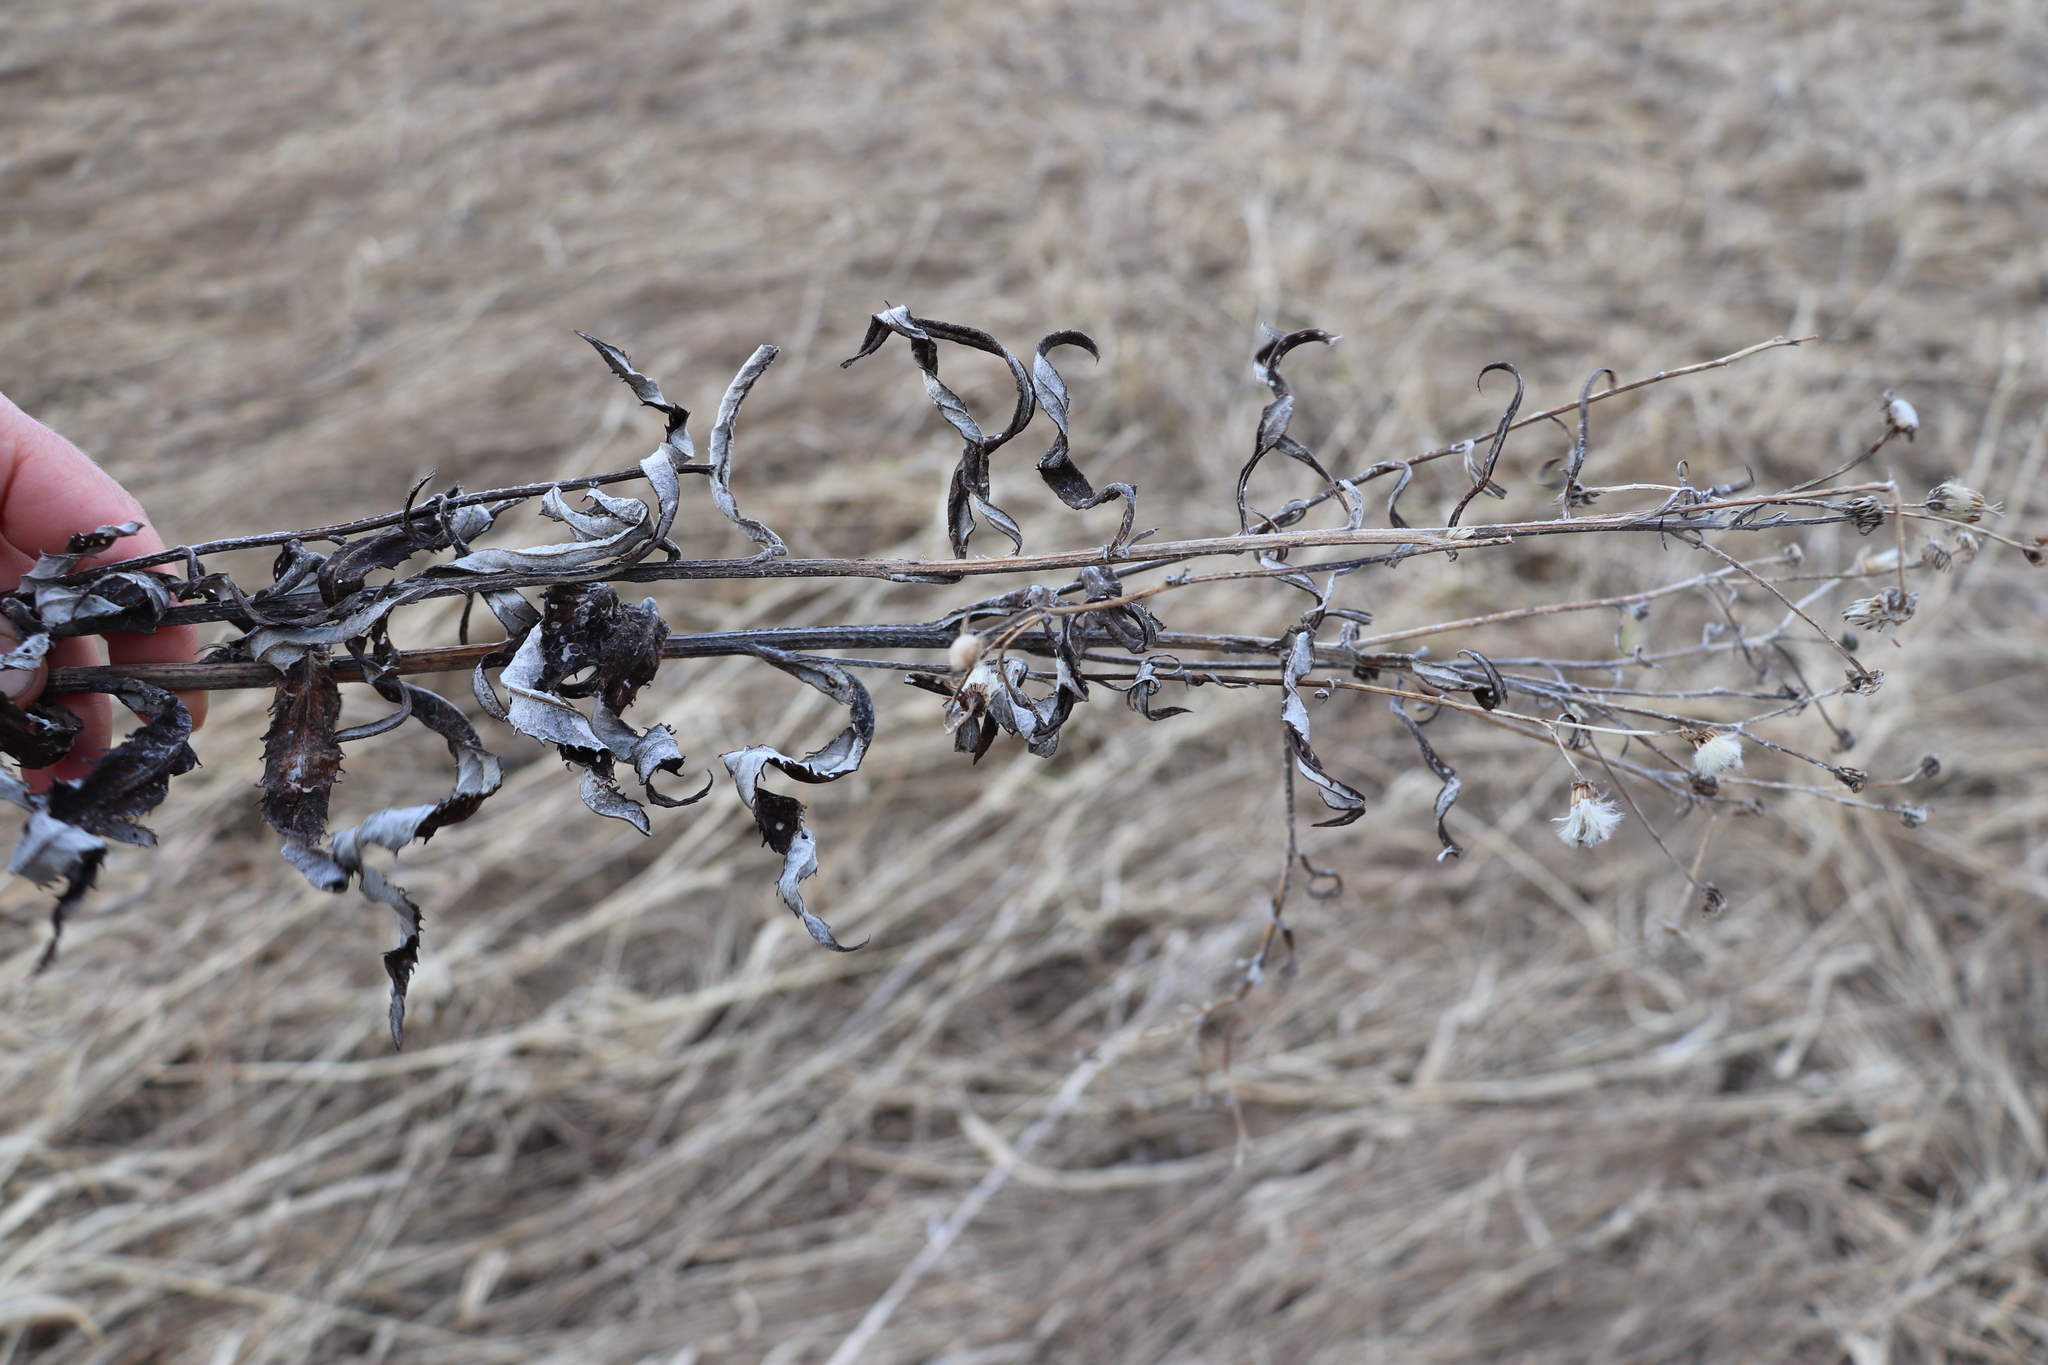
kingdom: Plantae
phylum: Tracheophyta
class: Magnoliopsida
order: Asterales
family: Asteraceae
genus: Cirsium
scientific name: Cirsium arvense
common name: Creeping thistle
